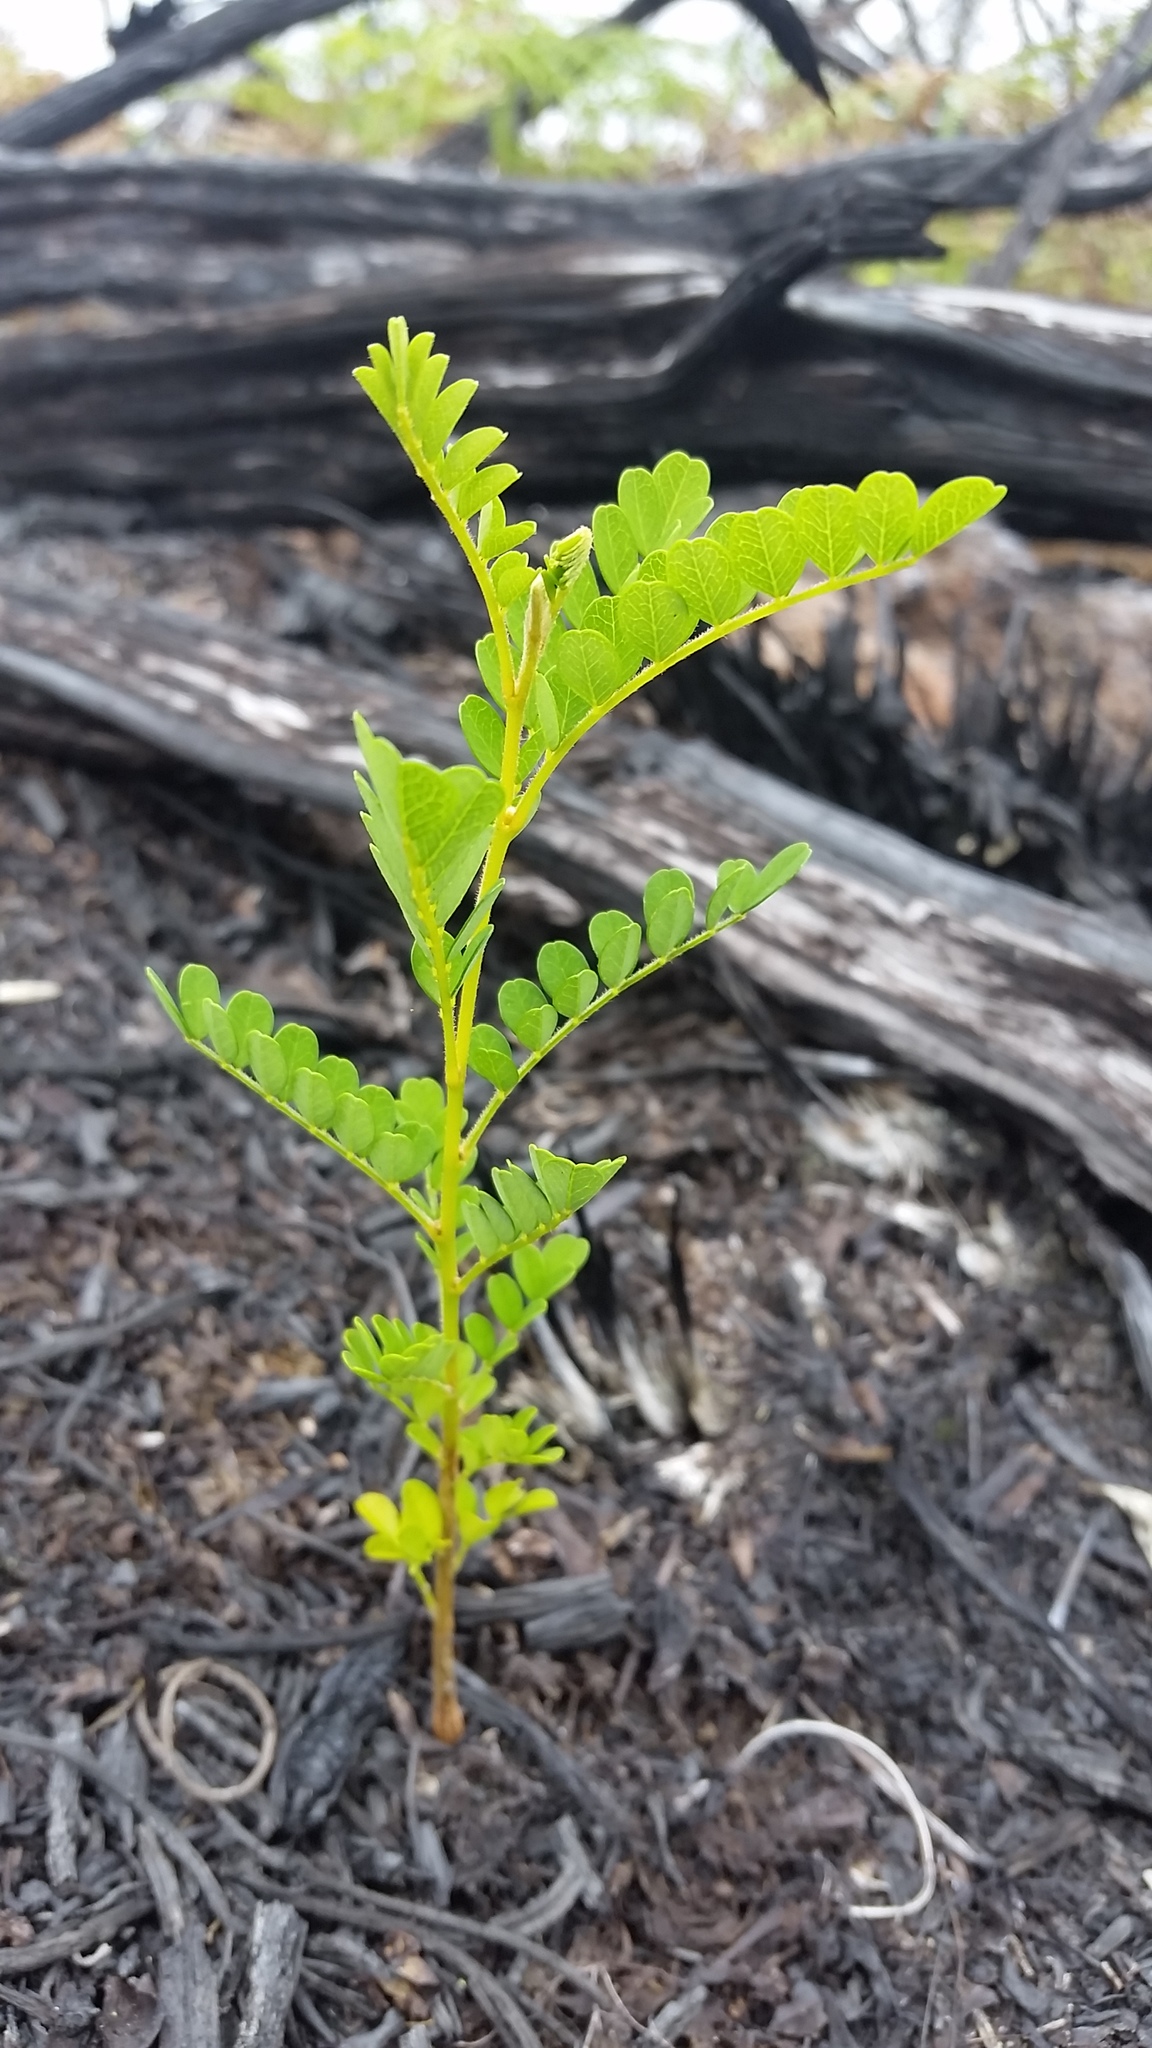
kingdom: Plantae
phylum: Tracheophyta
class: Magnoliopsida
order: Fabales
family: Fabaceae
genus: Sophora
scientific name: Sophora chrysophylla
